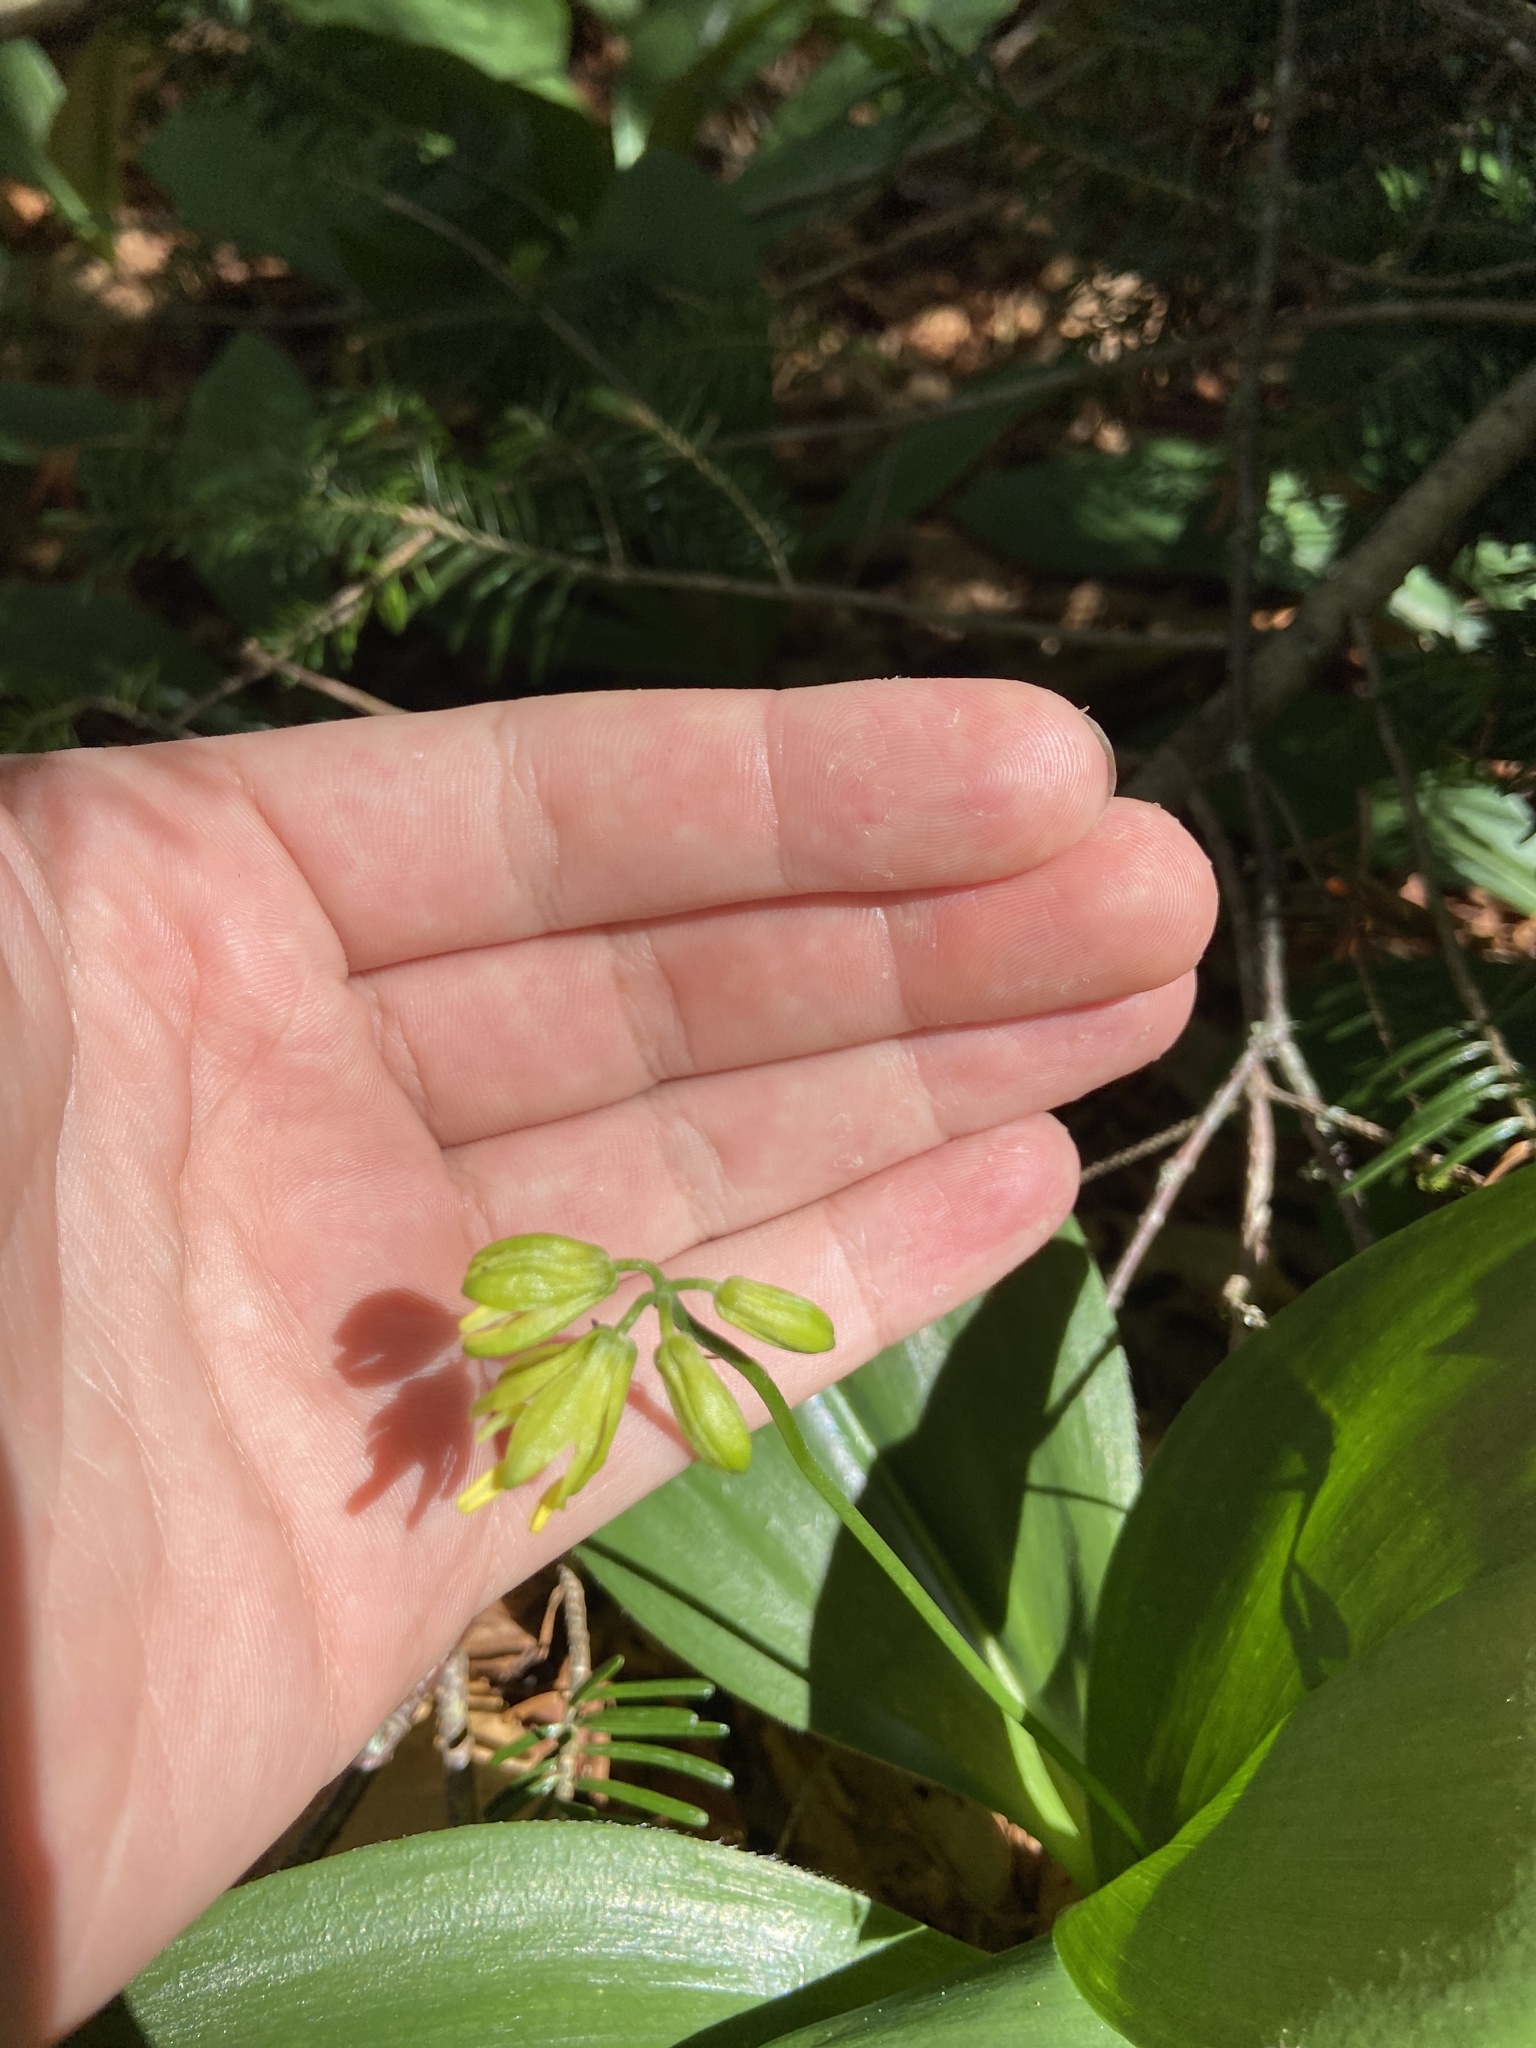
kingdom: Plantae
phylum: Tracheophyta
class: Liliopsida
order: Liliales
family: Liliaceae
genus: Clintonia
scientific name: Clintonia borealis
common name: Yellow clintonia
